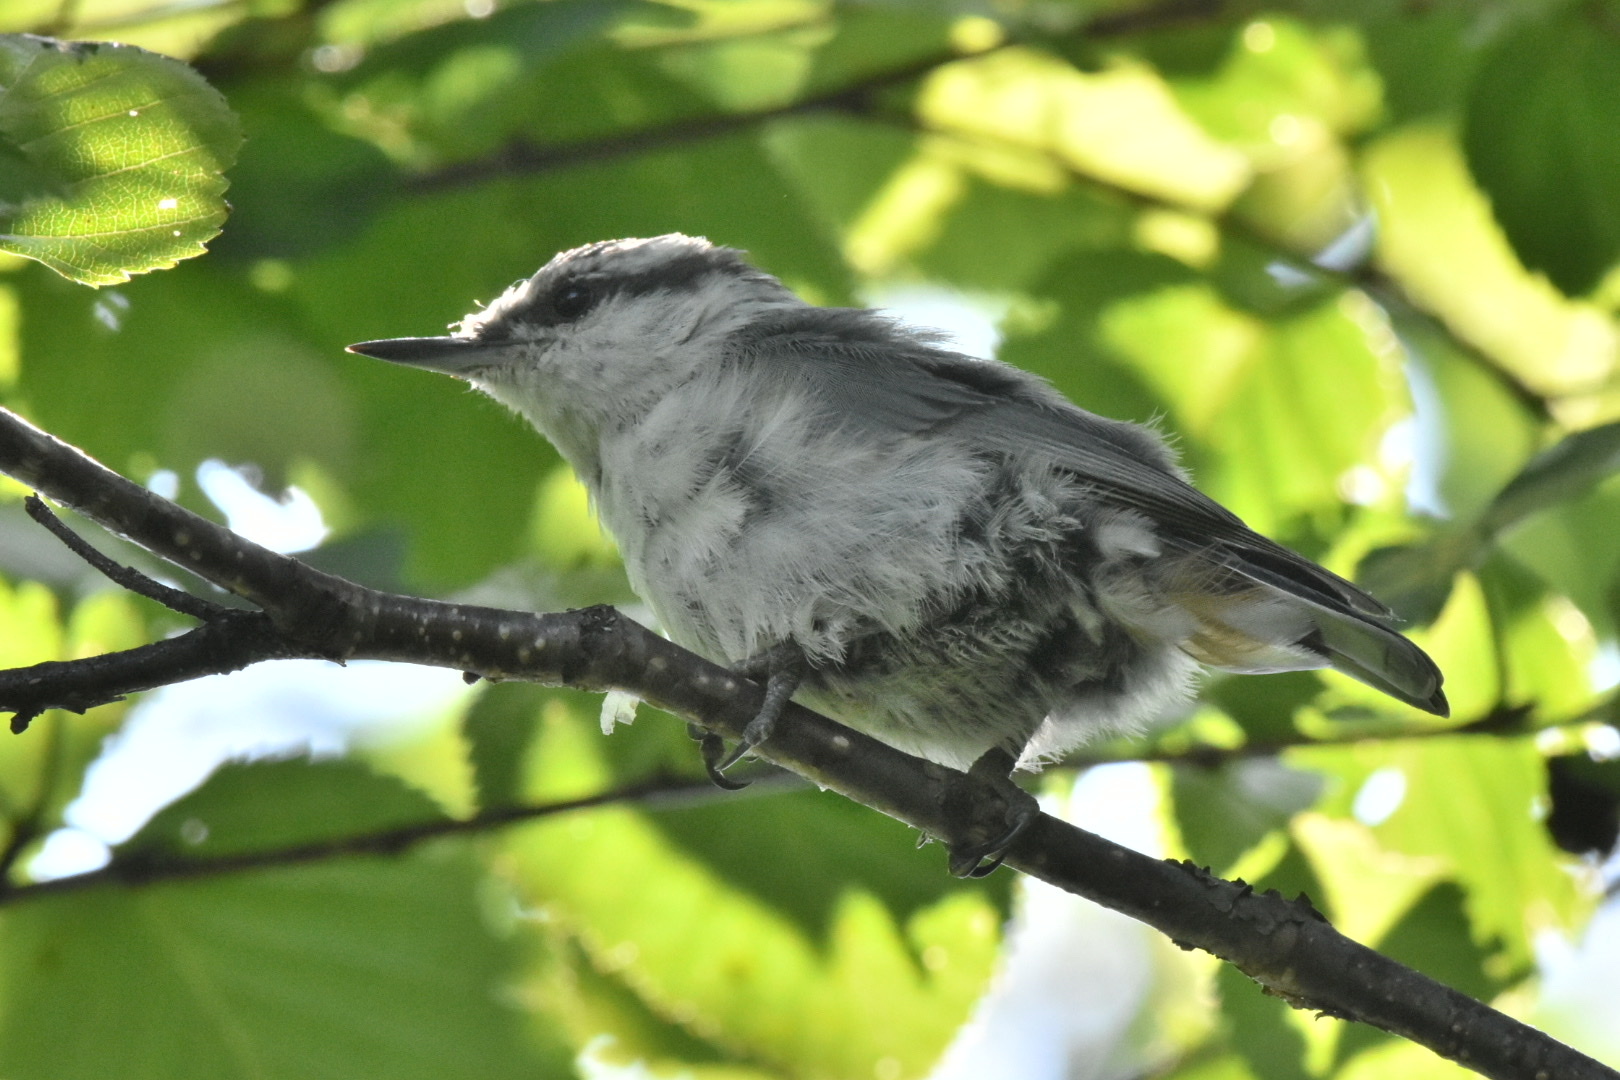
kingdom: Animalia
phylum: Chordata
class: Aves
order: Passeriformes
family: Sittidae
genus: Sitta
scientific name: Sitta europaea
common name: Eurasian nuthatch
